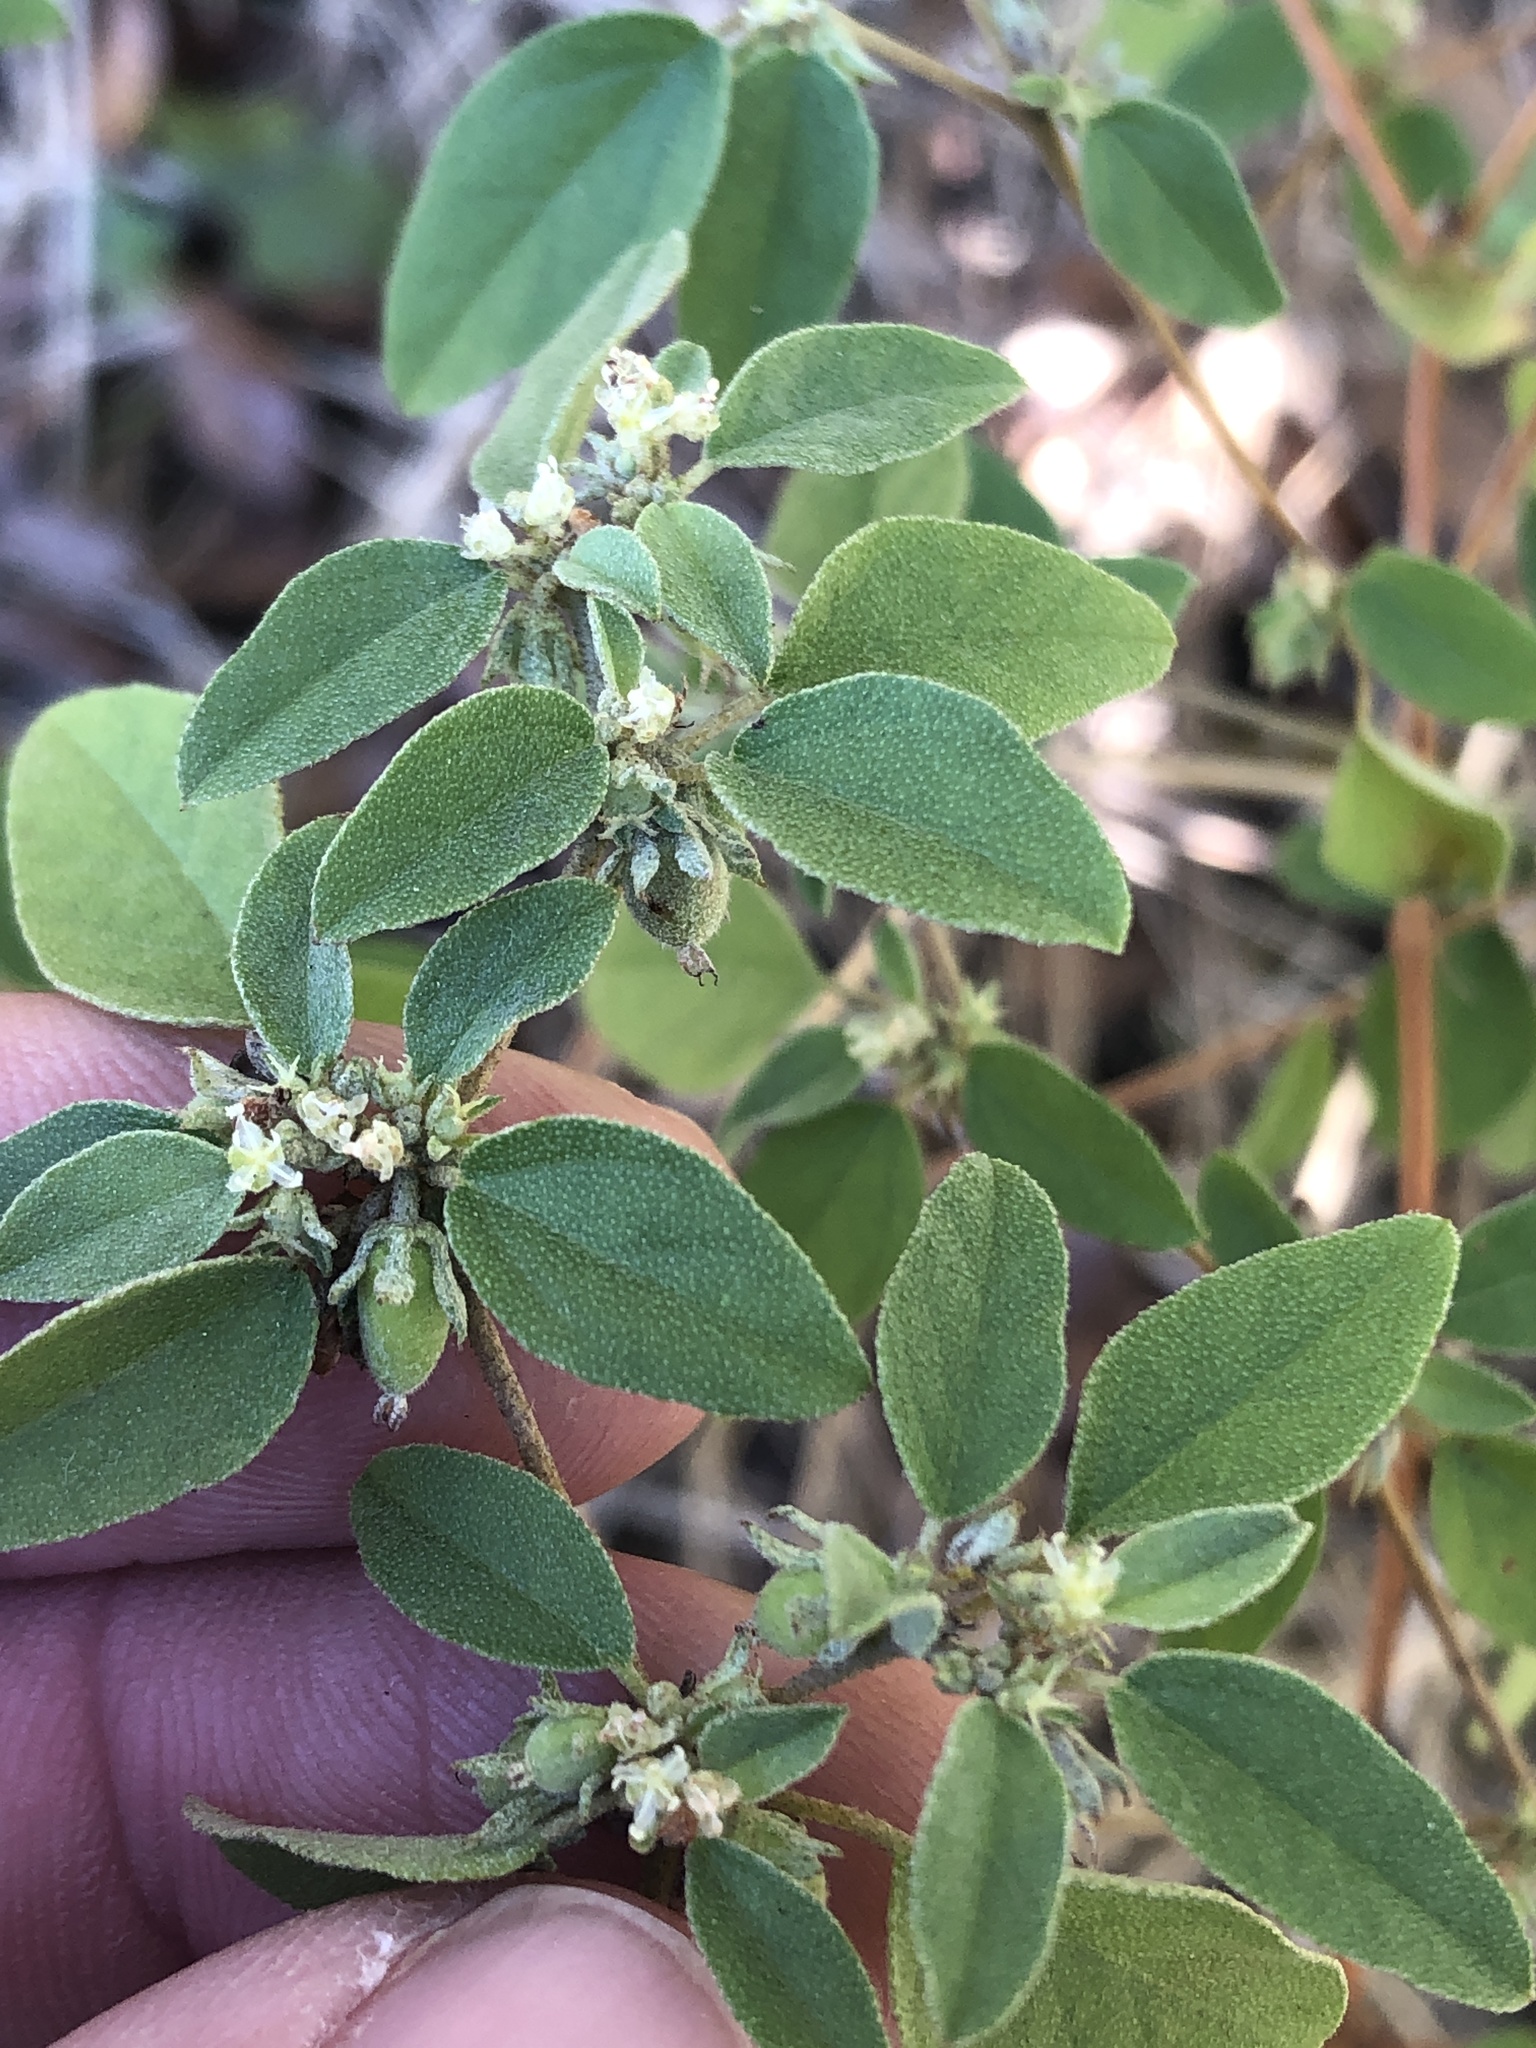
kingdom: Plantae
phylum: Tracheophyta
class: Magnoliopsida
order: Malpighiales
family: Euphorbiaceae
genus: Croton
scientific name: Croton monanthogynus
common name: One-seed croton
